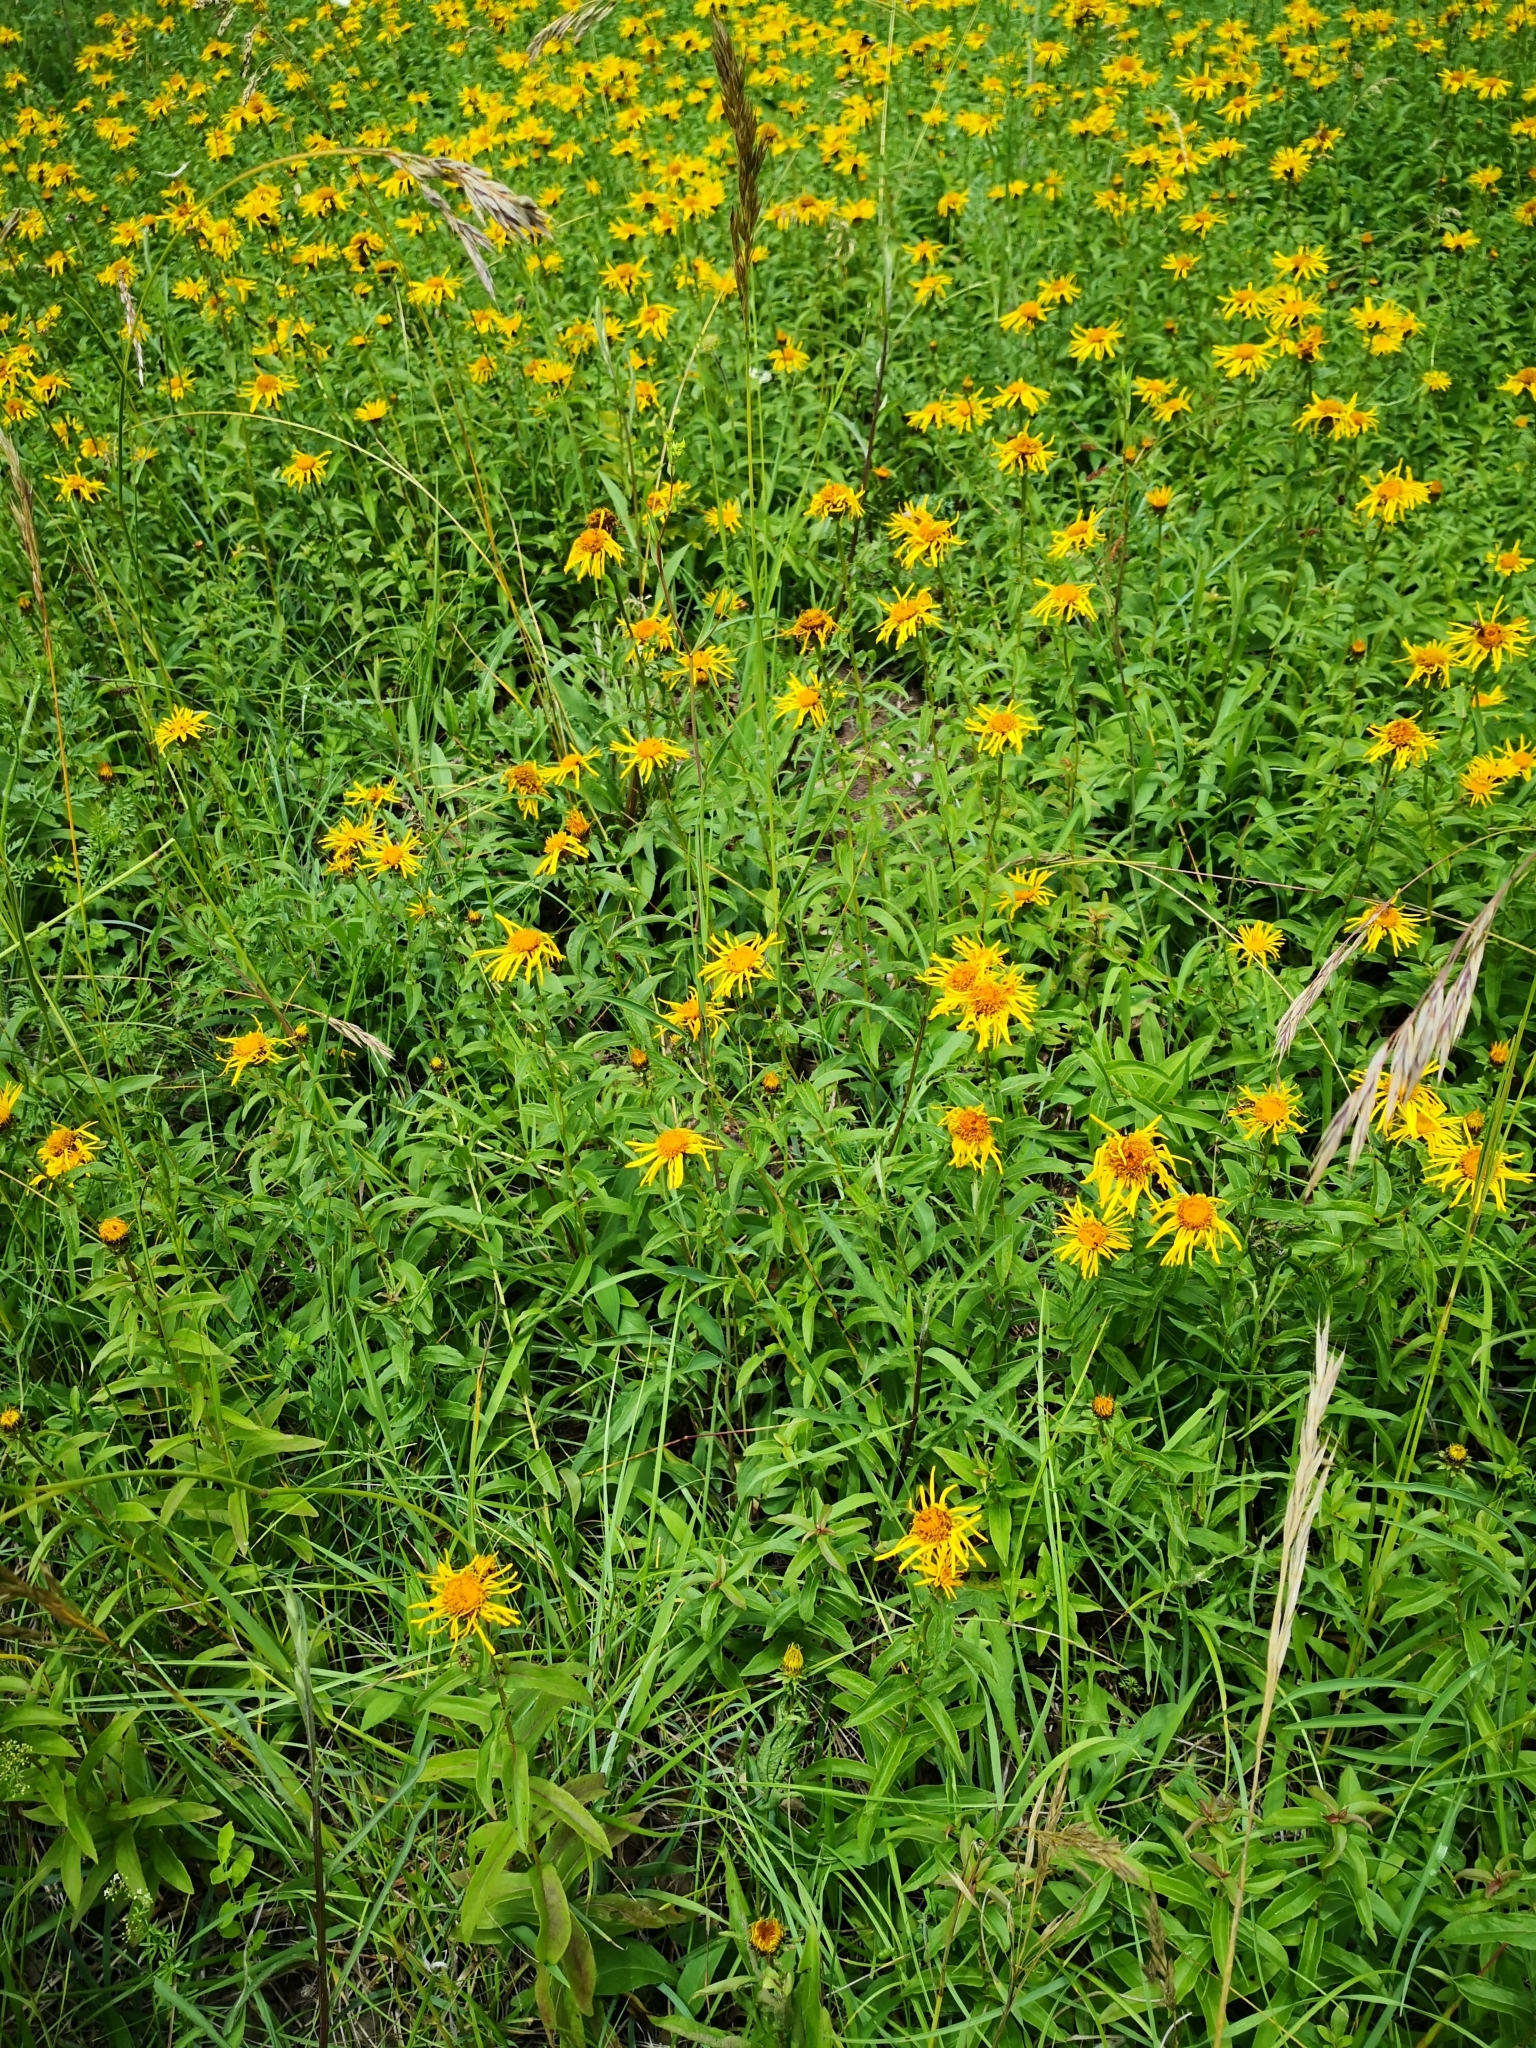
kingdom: Plantae
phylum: Tracheophyta
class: Magnoliopsida
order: Asterales
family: Asteraceae
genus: Pentanema
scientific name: Pentanema salicinum
